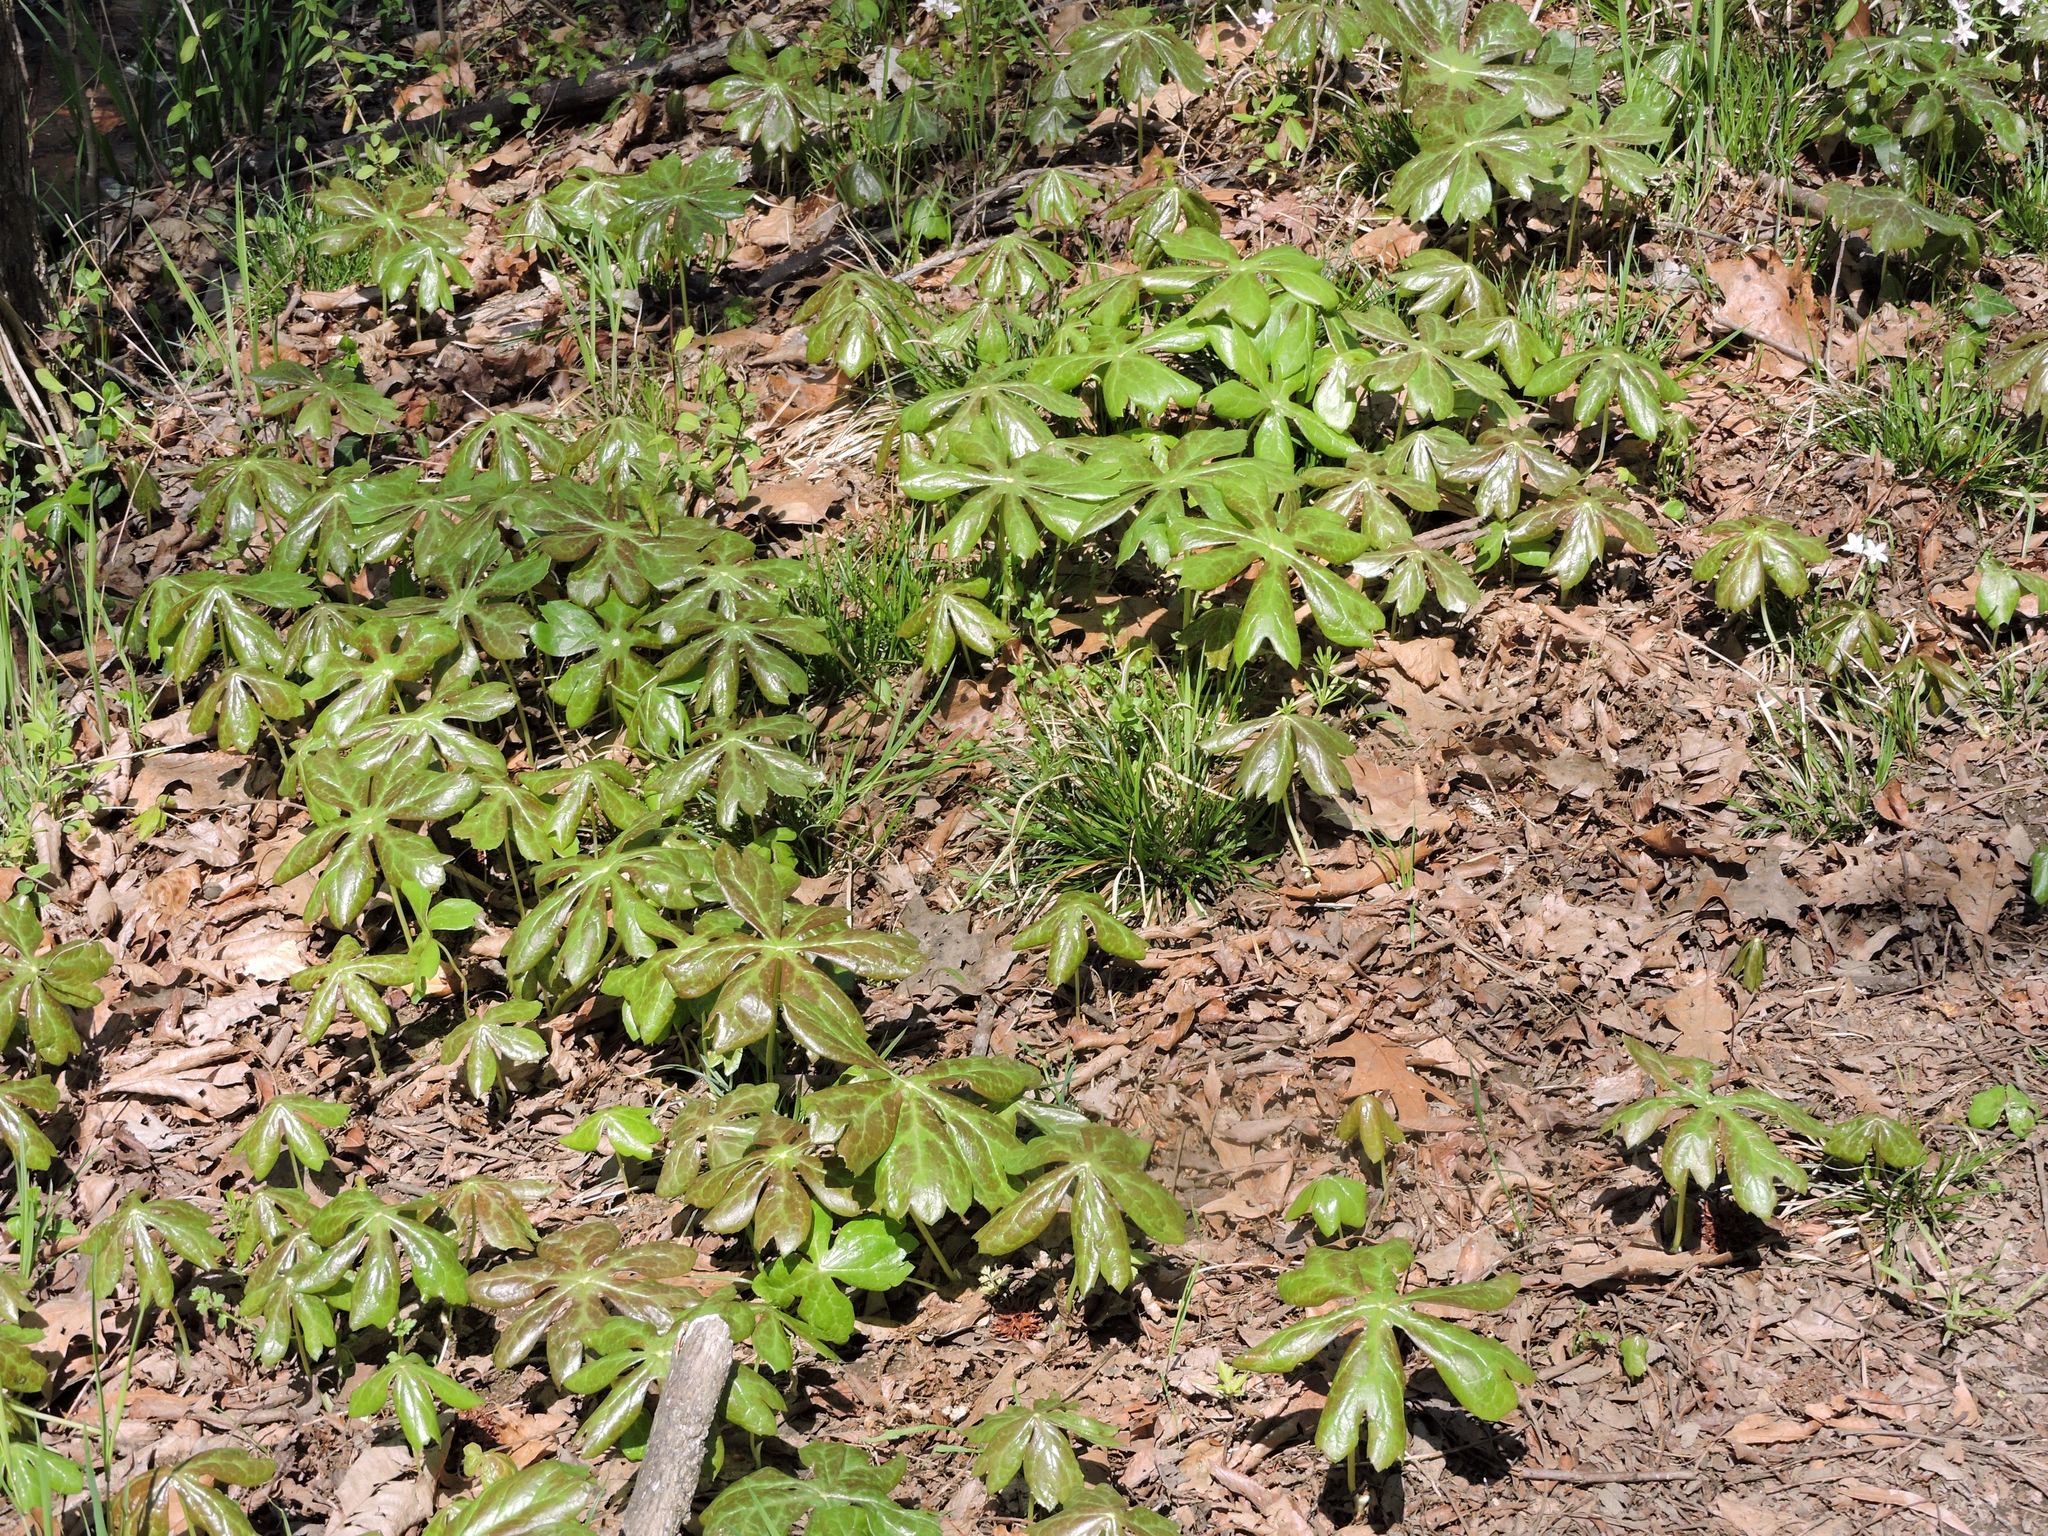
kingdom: Plantae
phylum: Tracheophyta
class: Magnoliopsida
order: Ranunculales
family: Berberidaceae
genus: Podophyllum
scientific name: Podophyllum peltatum
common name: Wild mandrake
